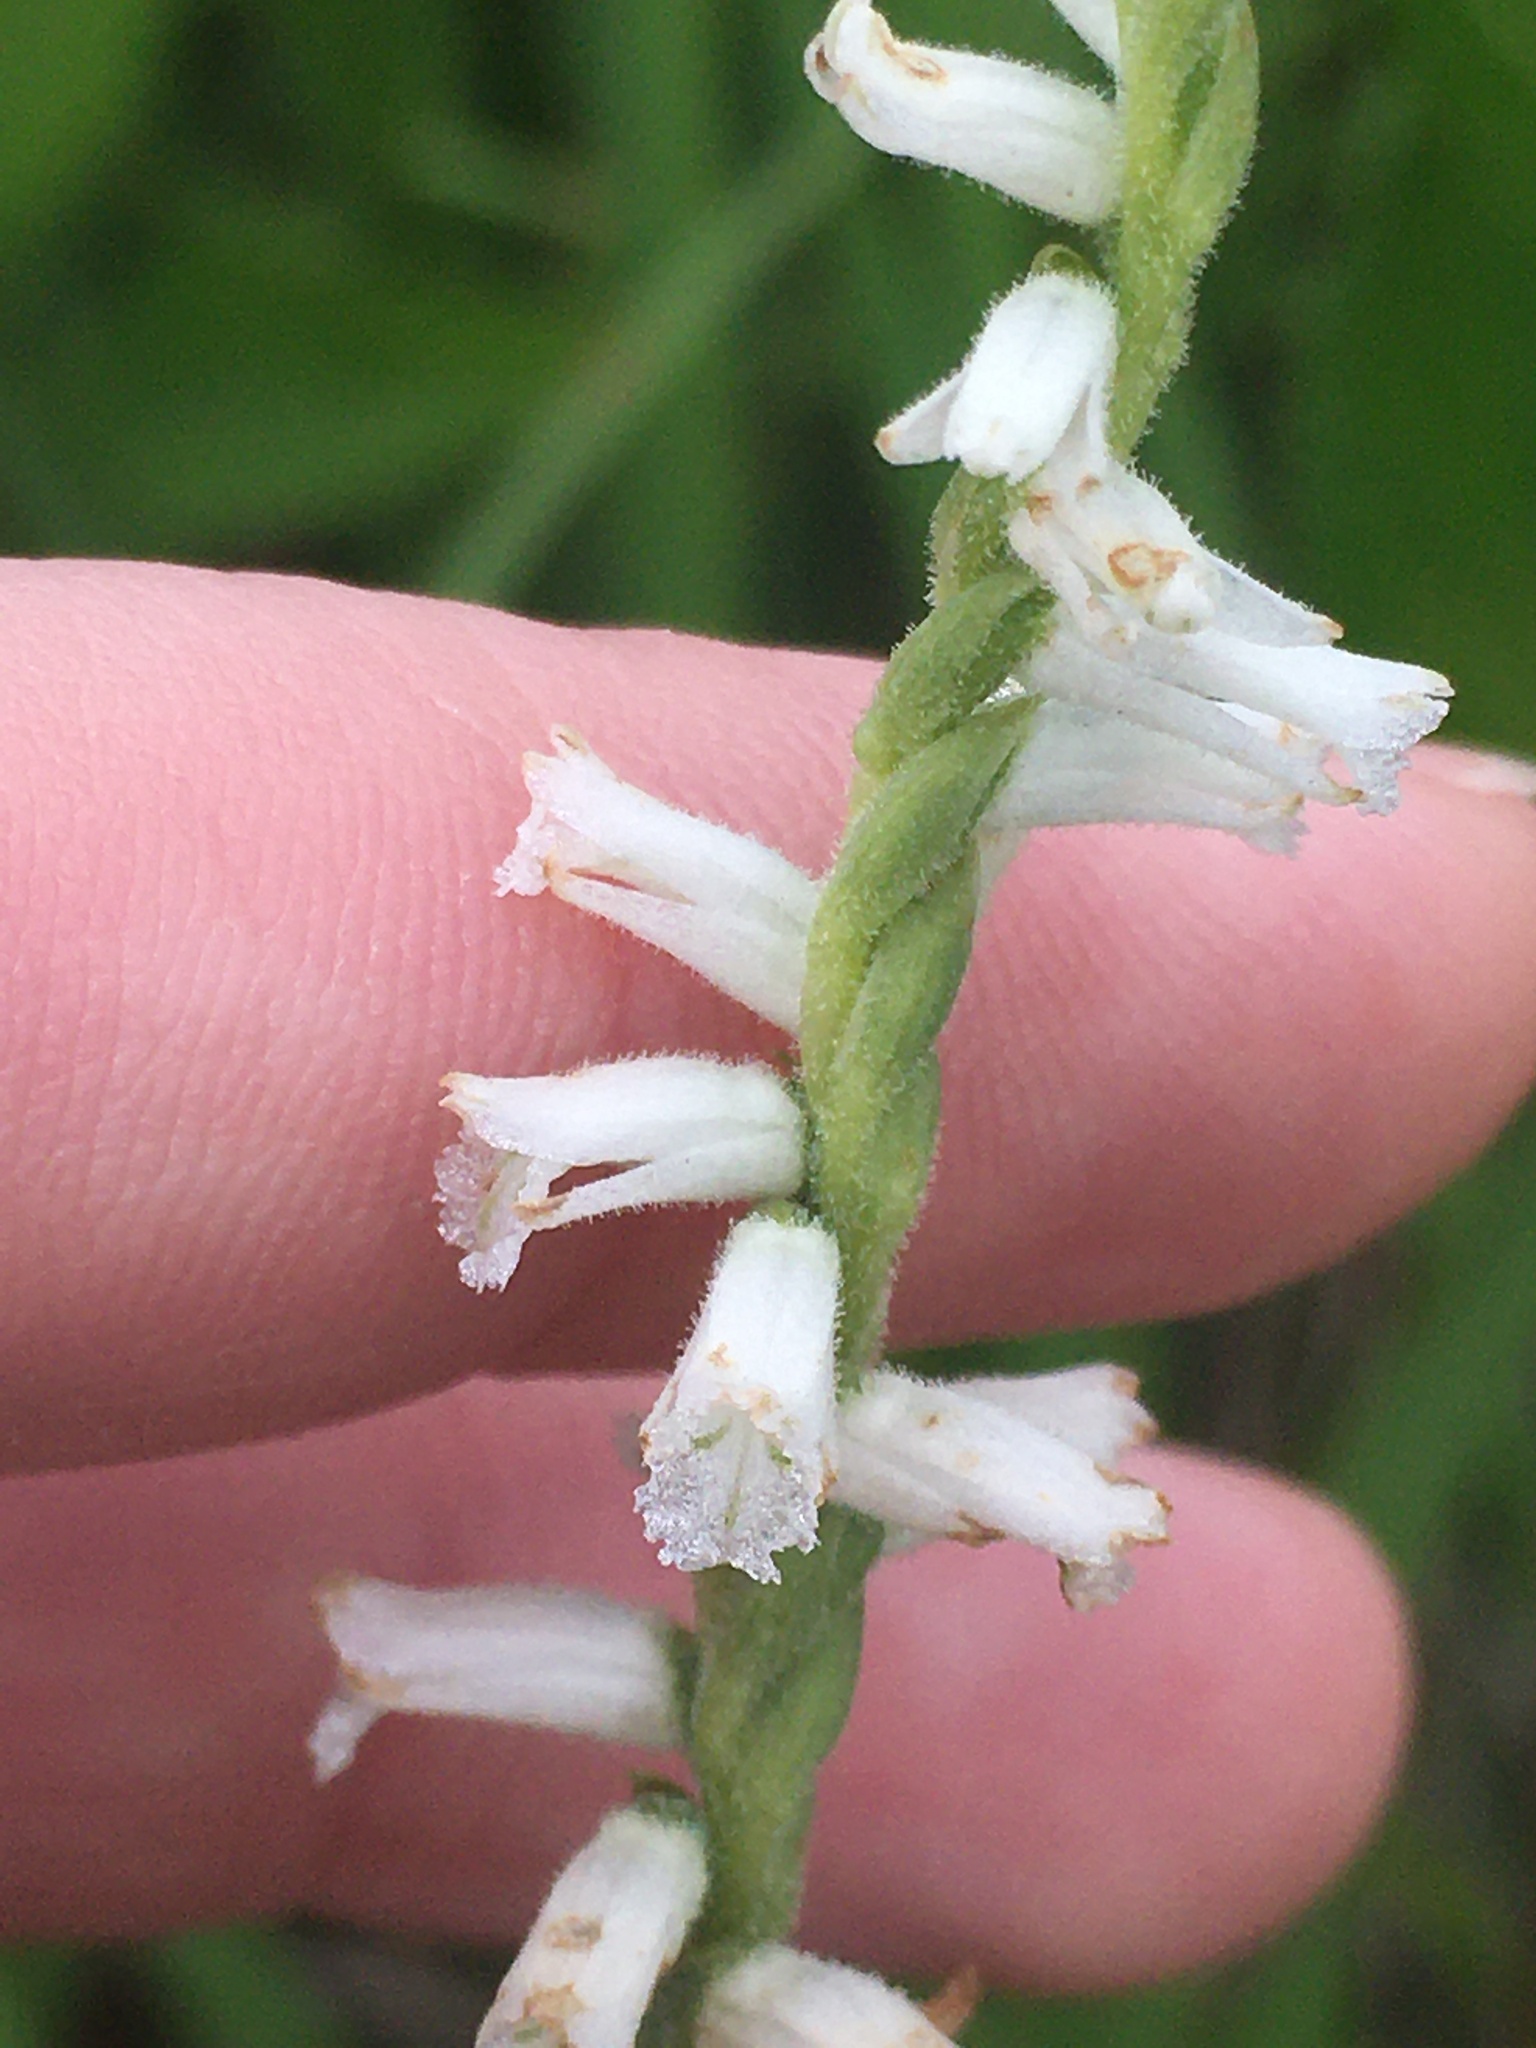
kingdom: Plantae
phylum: Tracheophyta
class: Liliopsida
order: Asparagales
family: Orchidaceae
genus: Spiranthes
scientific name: Spiranthes praecox
